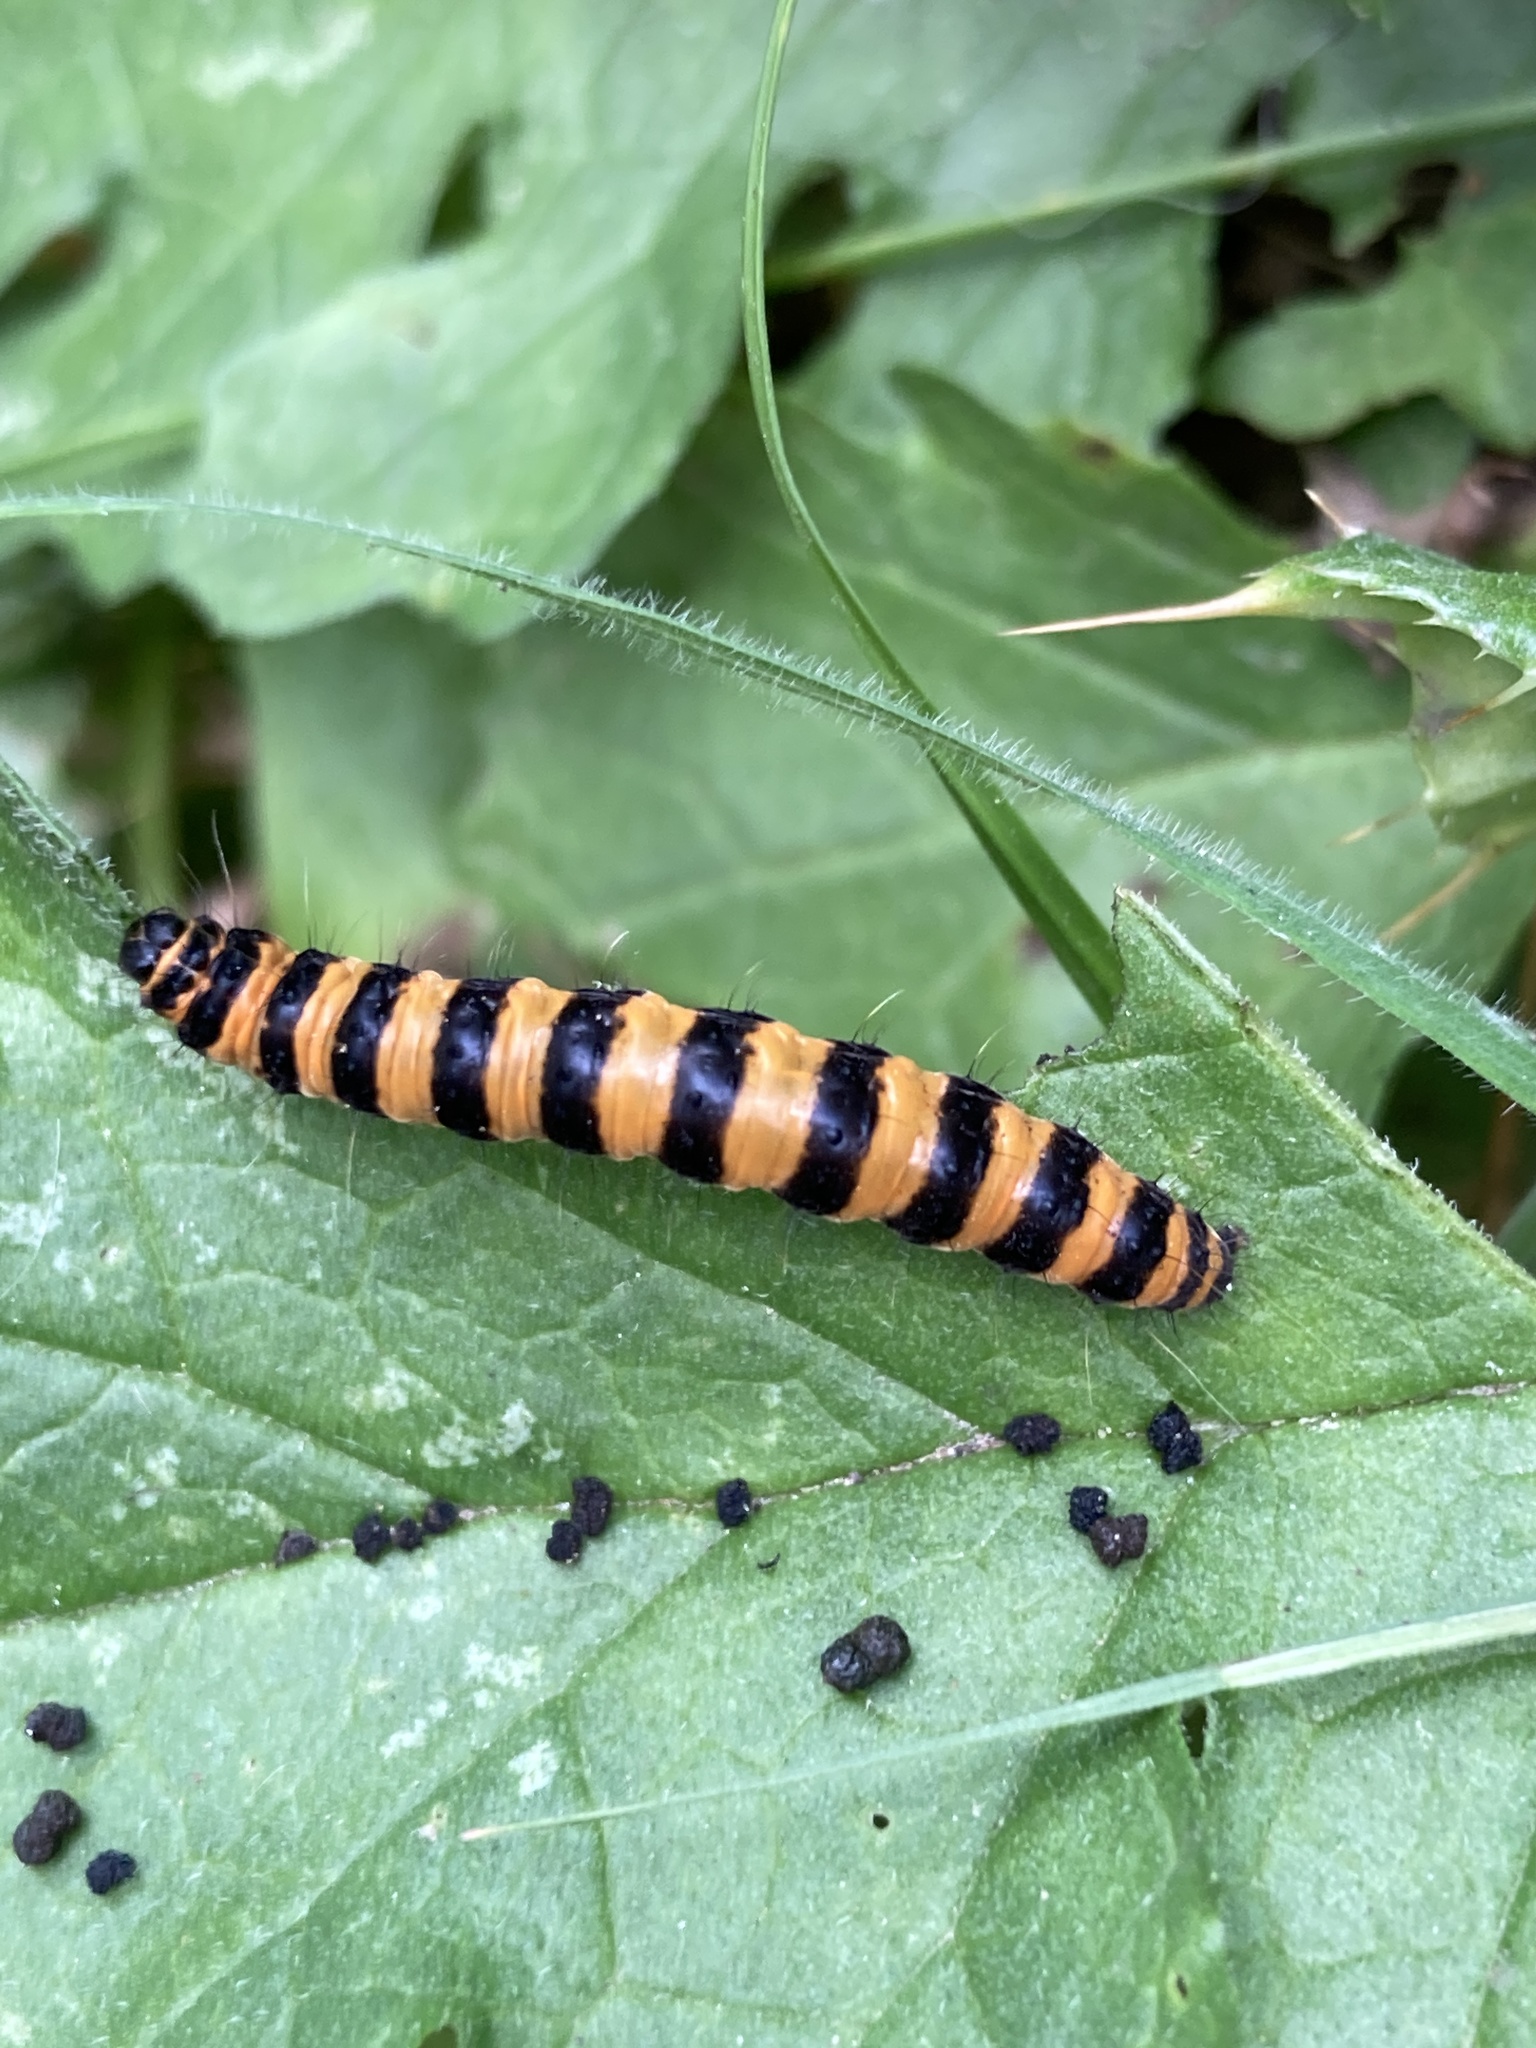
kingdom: Animalia
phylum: Arthropoda
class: Insecta
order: Lepidoptera
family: Erebidae
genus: Tyria
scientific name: Tyria jacobaeae
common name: Cinnabar
